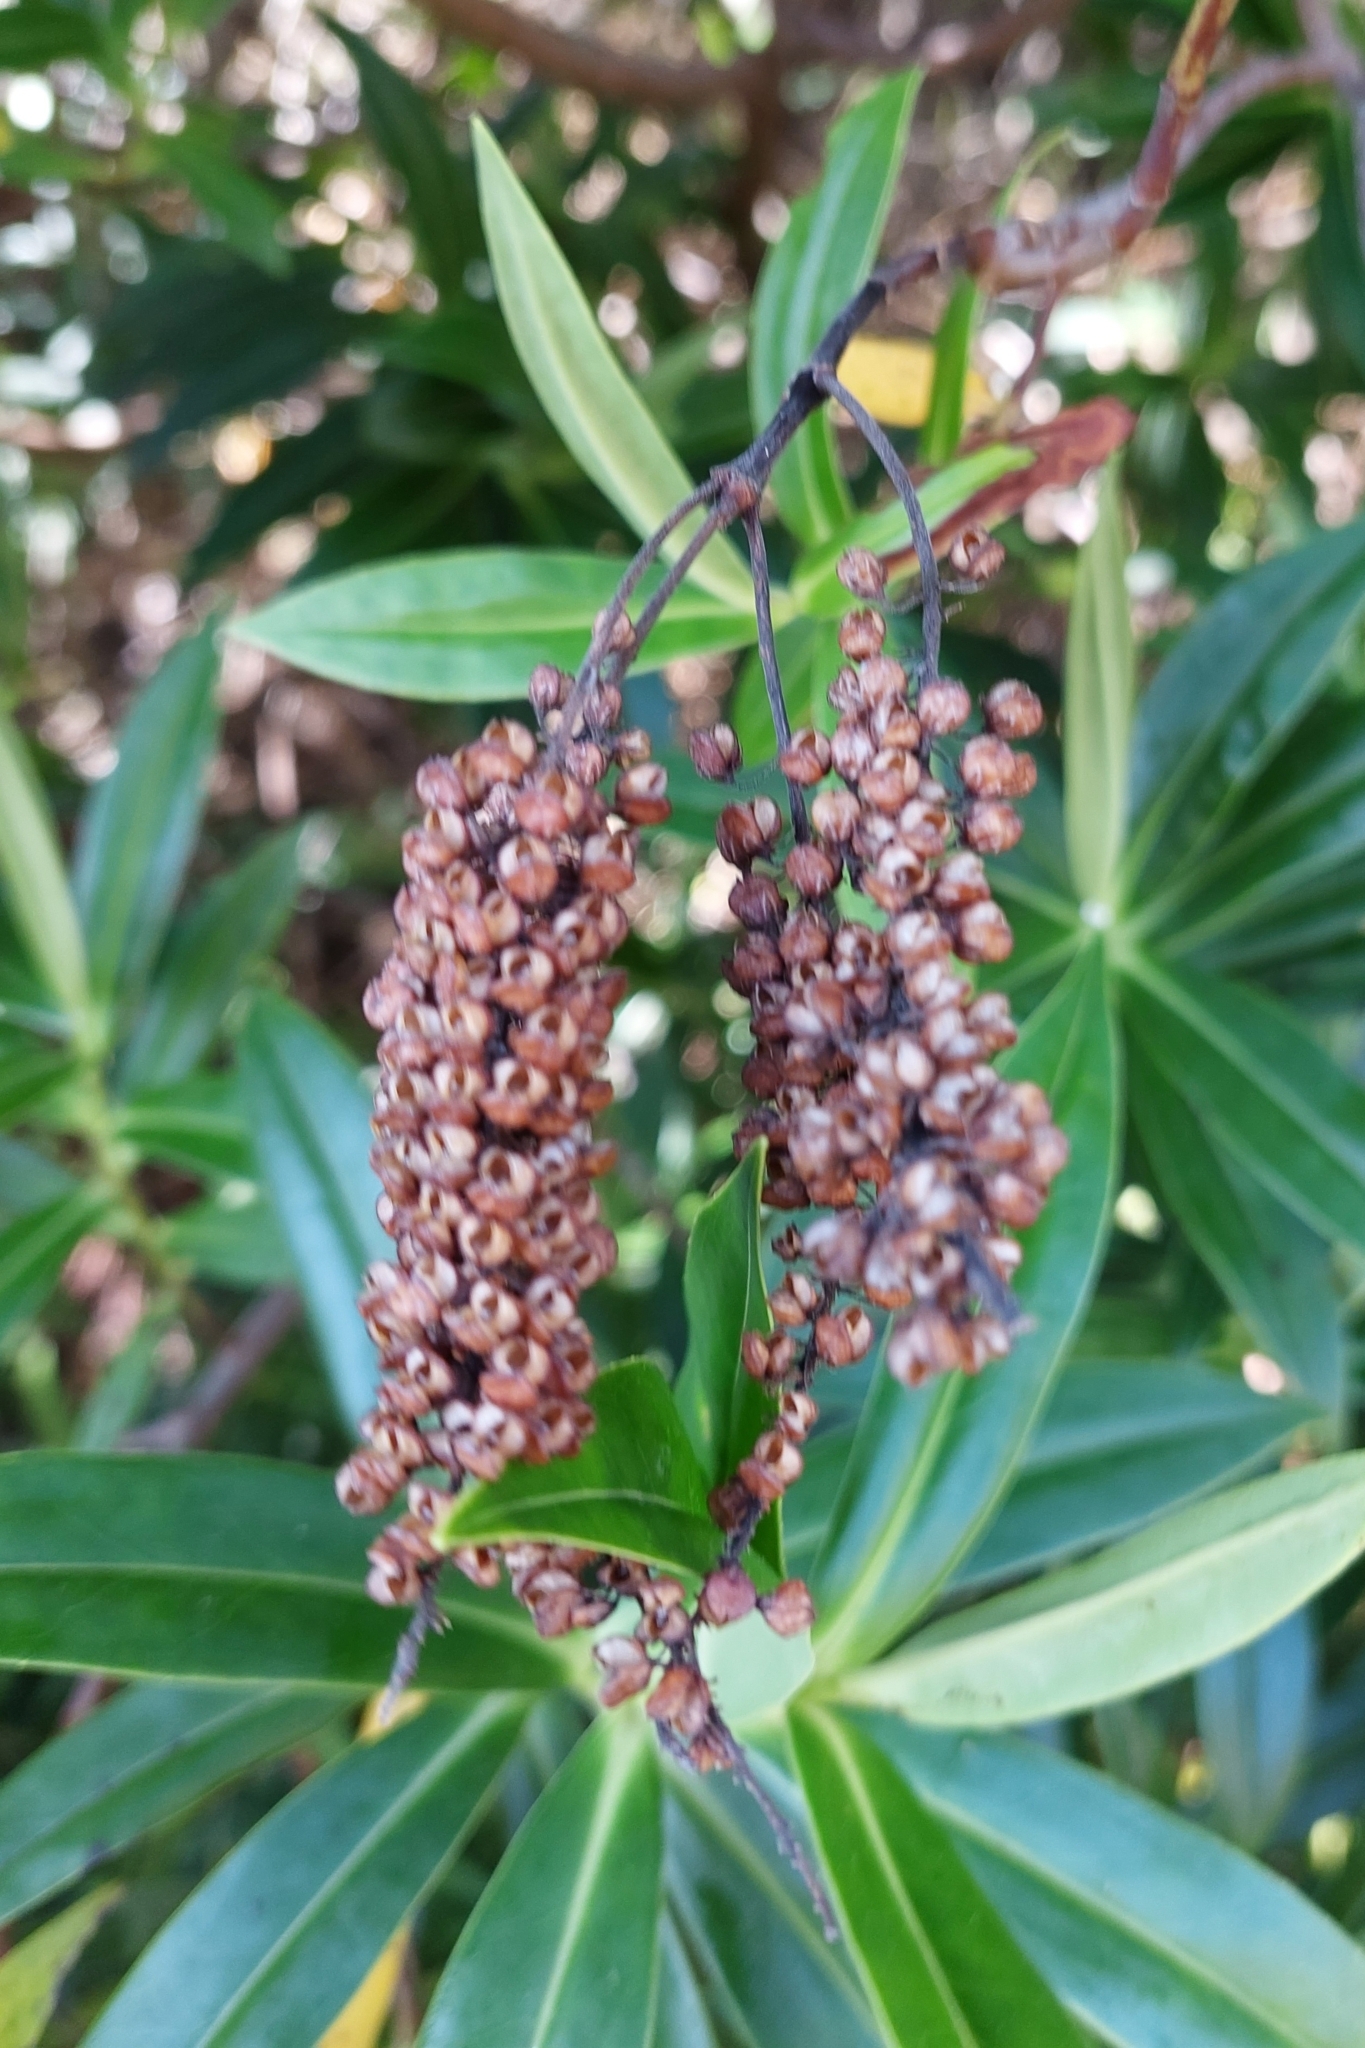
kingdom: Plantae
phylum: Tracheophyta
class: Magnoliopsida
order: Lamiales
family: Plantaginaceae
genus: Veronica
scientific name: Veronica salicifolia
